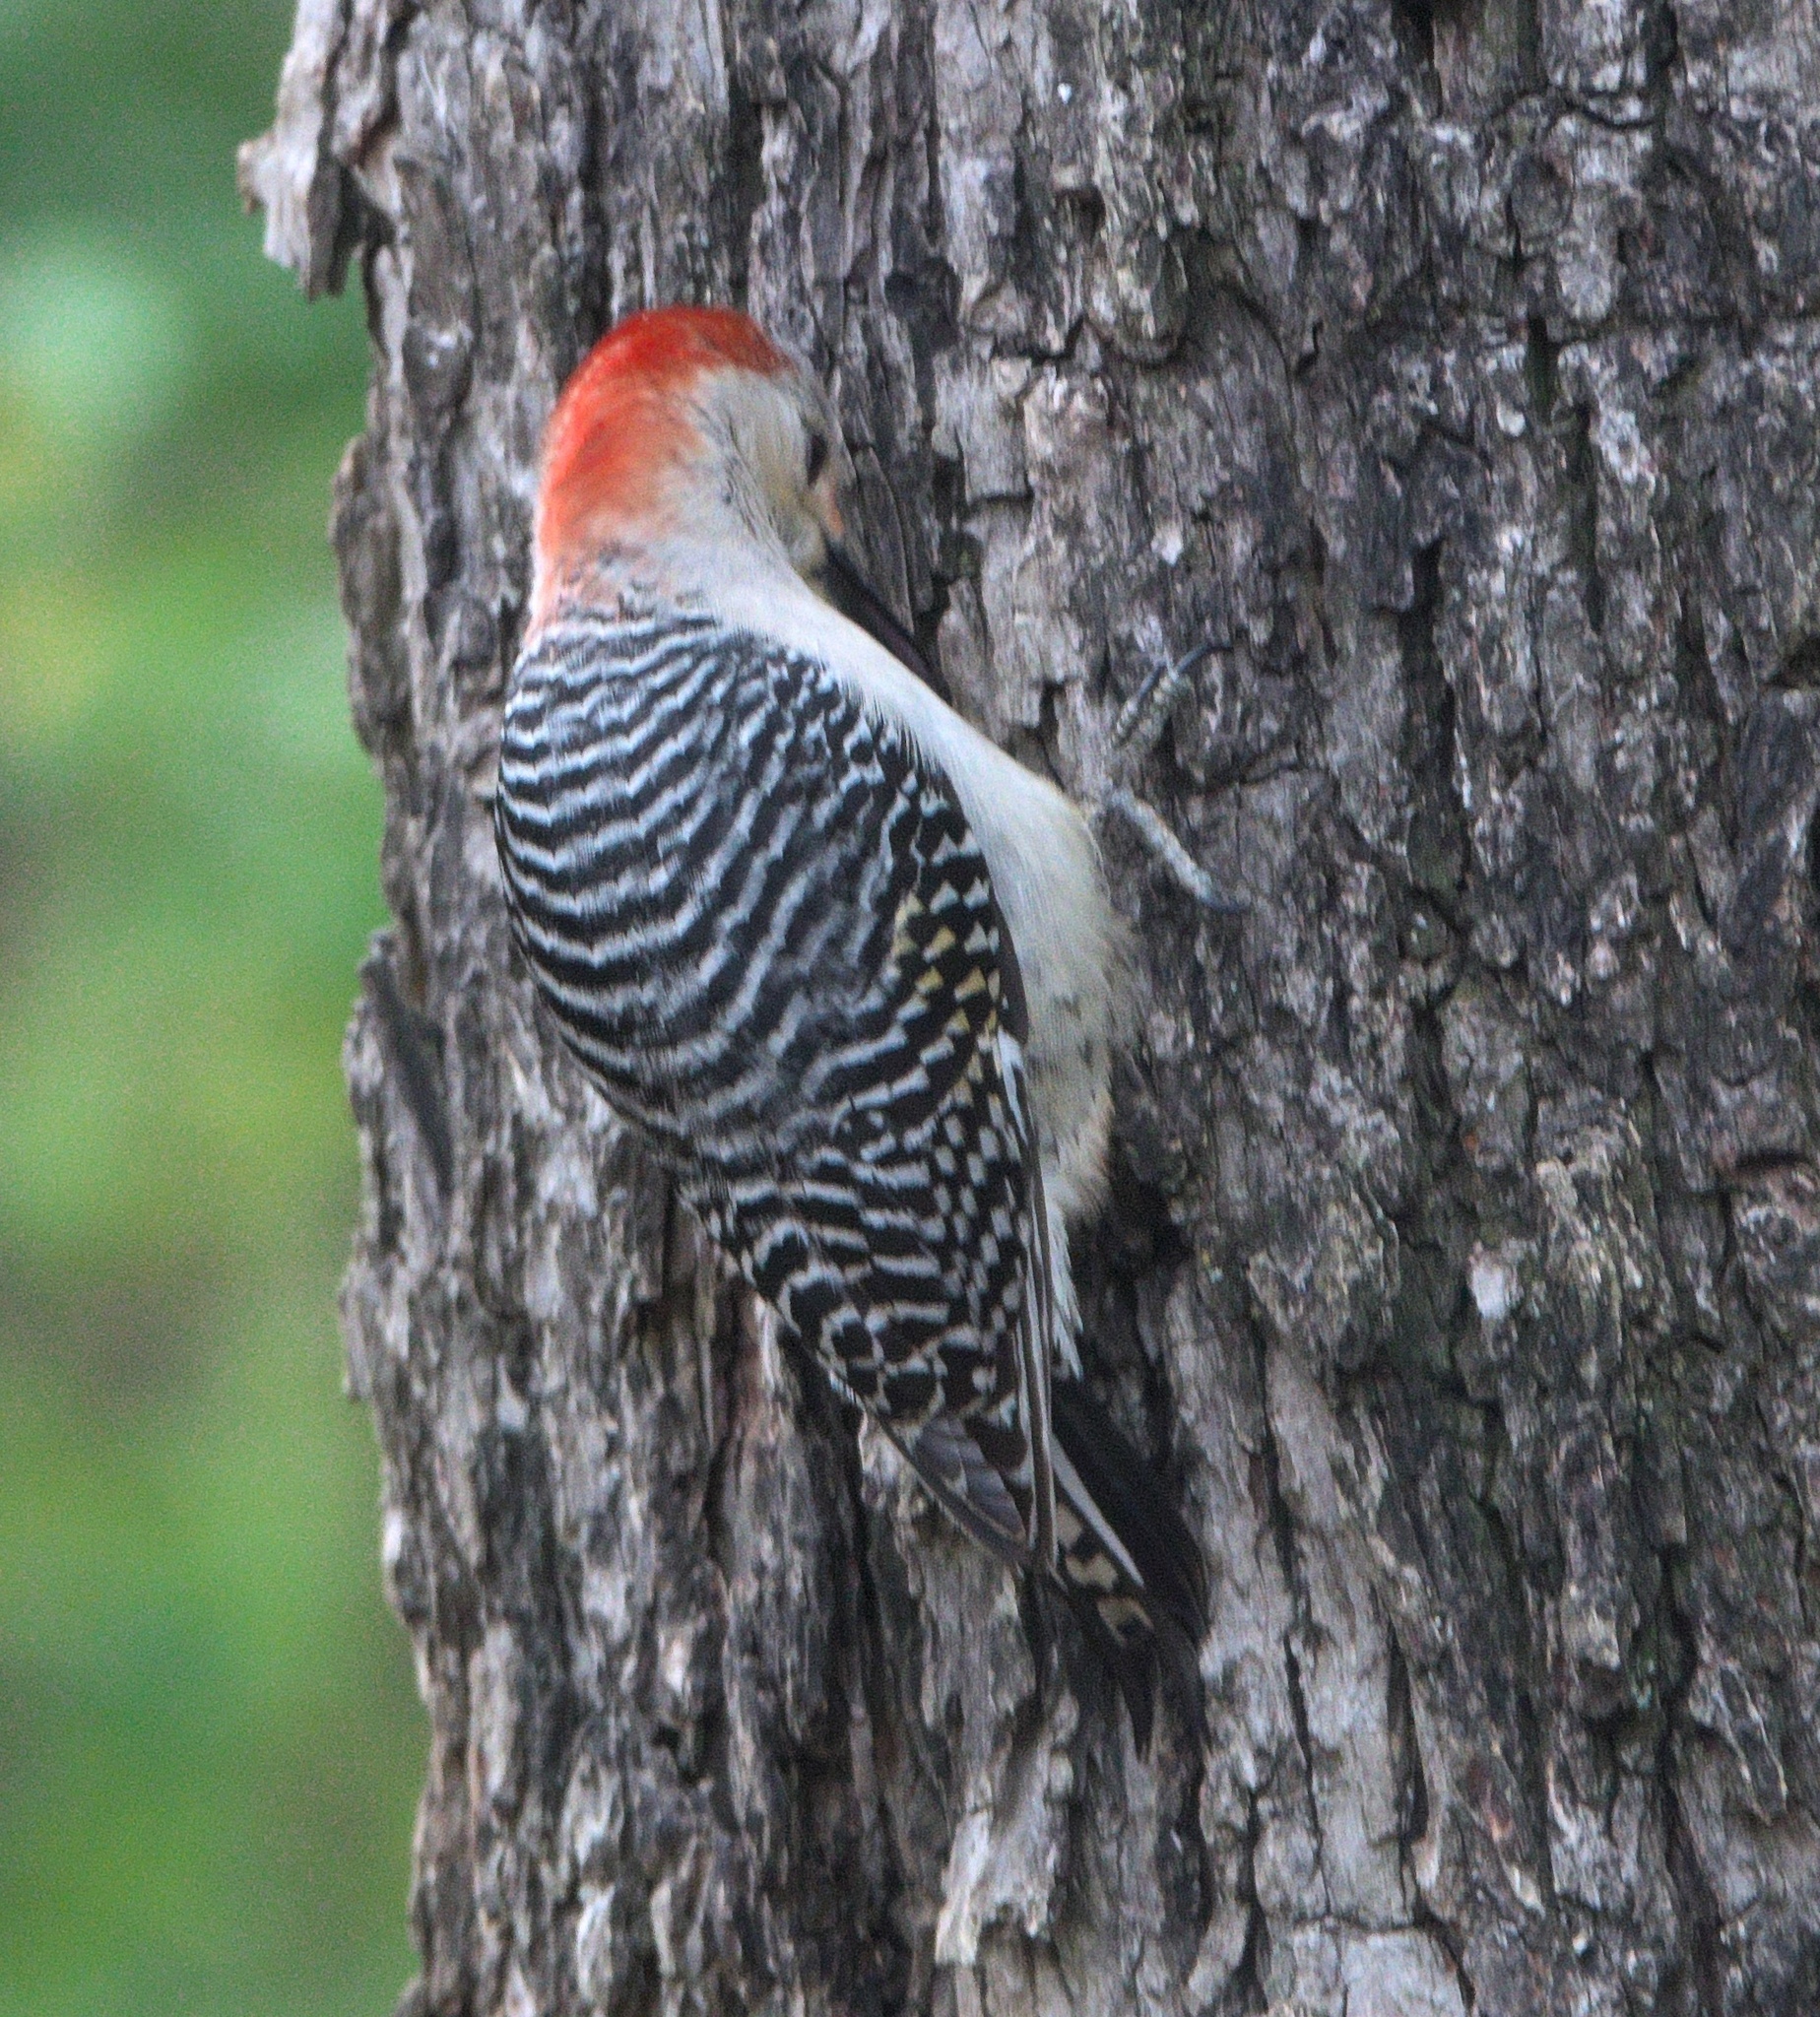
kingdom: Animalia
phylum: Chordata
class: Aves
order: Piciformes
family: Picidae
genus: Melanerpes
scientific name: Melanerpes carolinus
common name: Red-bellied woodpecker
